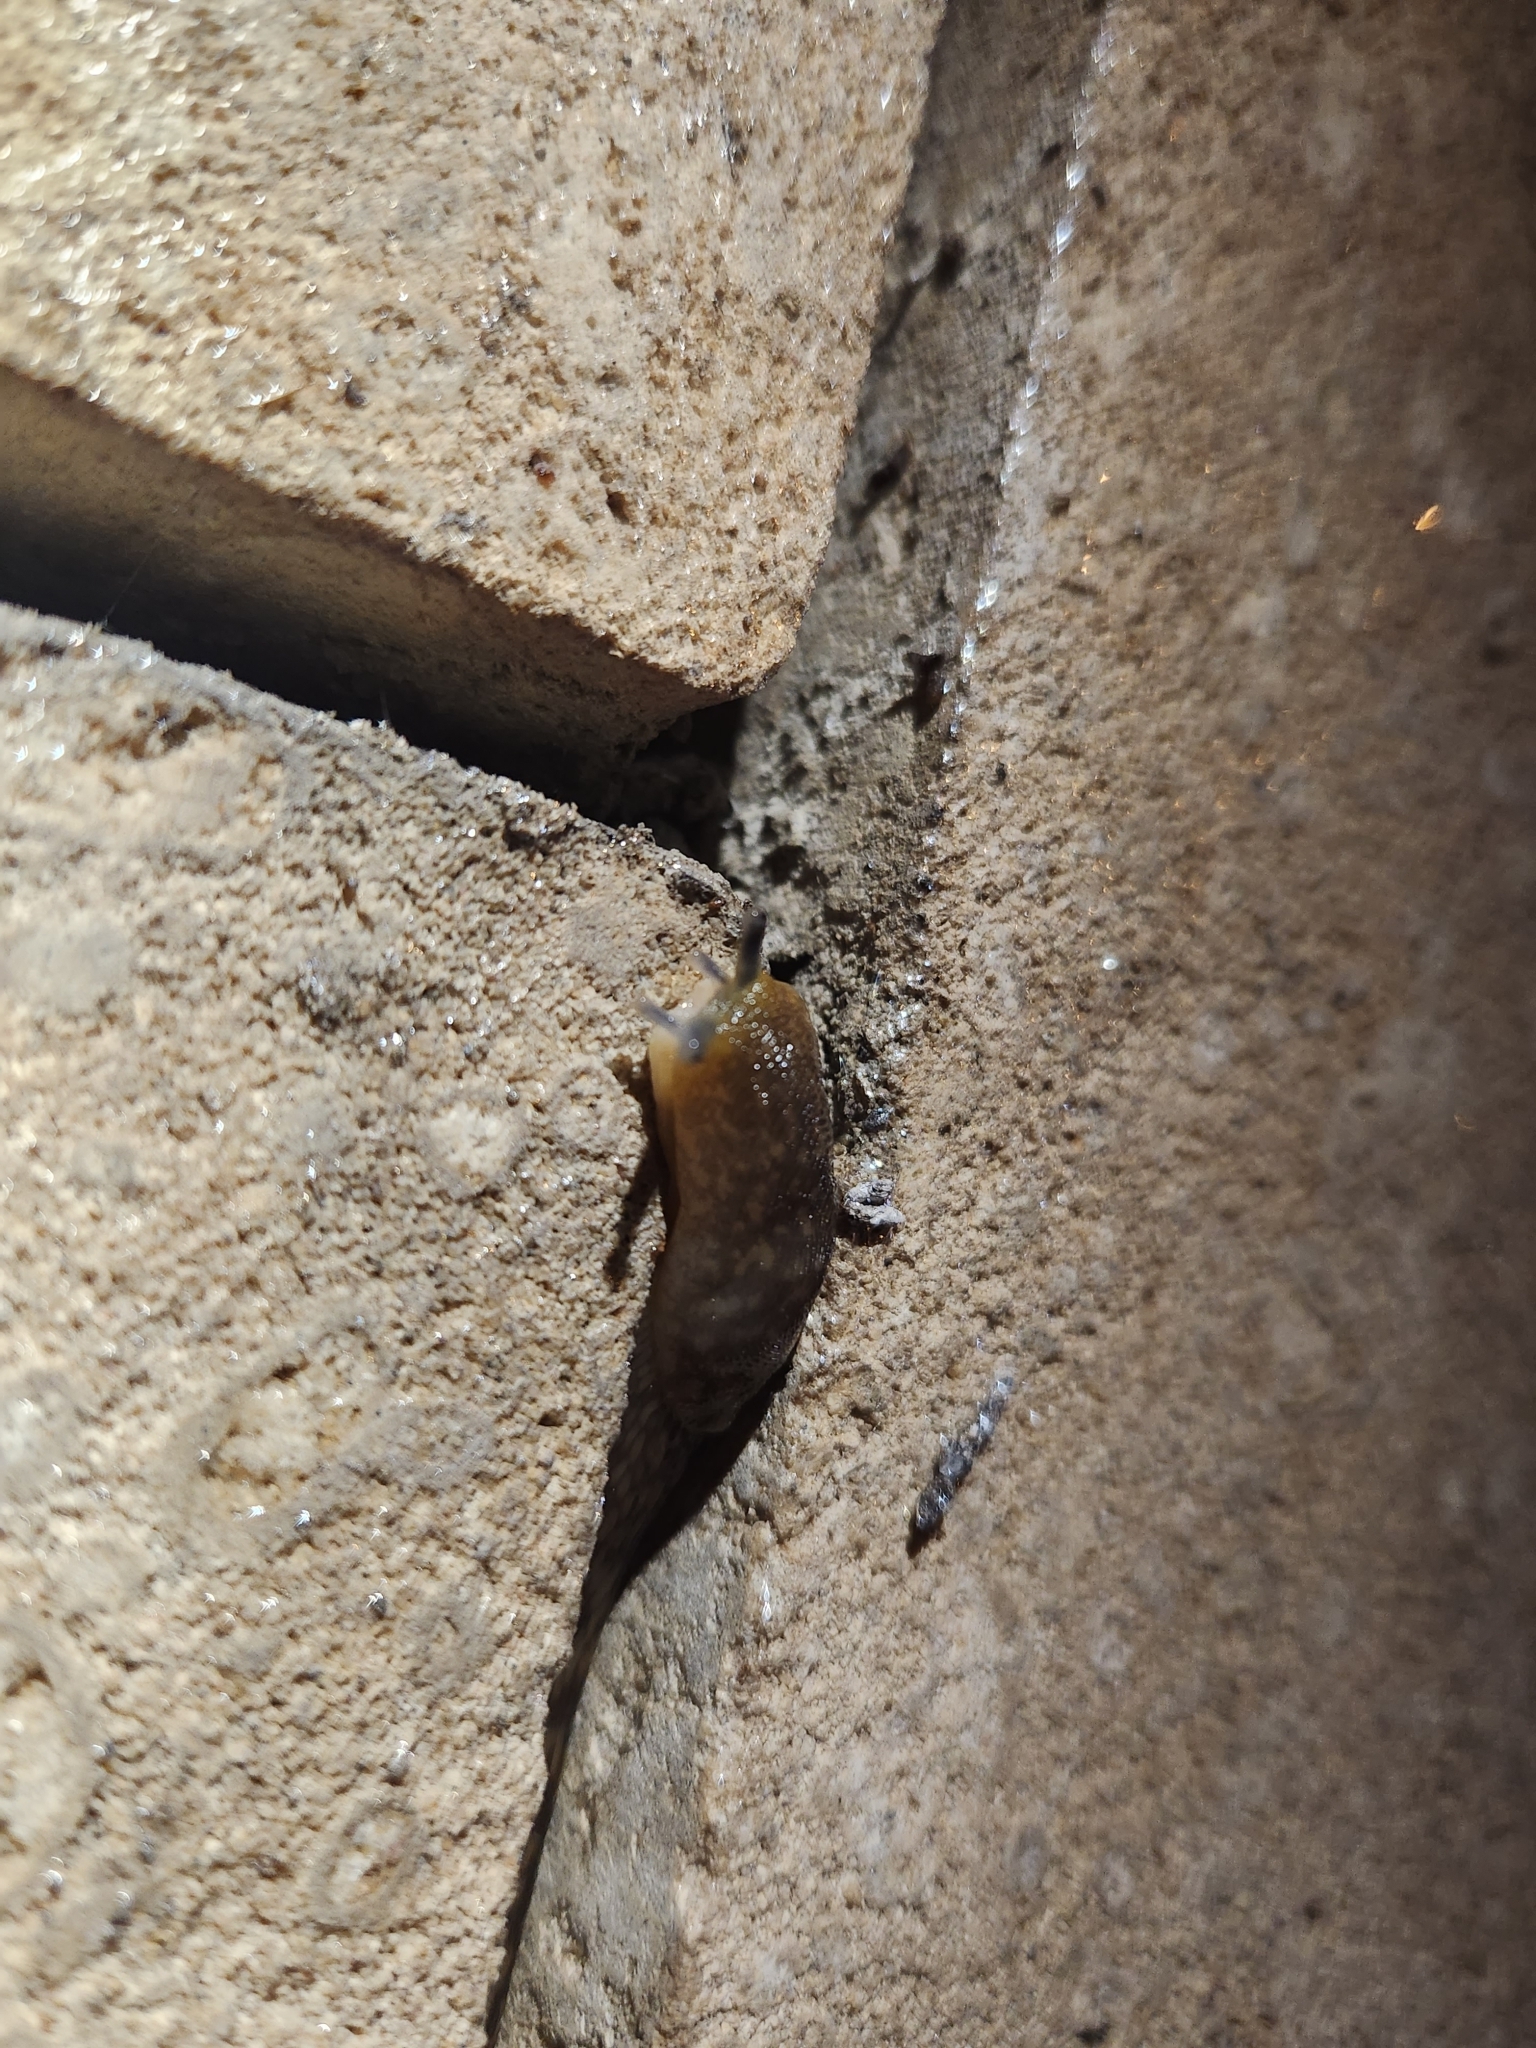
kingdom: Animalia
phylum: Mollusca
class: Gastropoda
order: Stylommatophora
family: Limacidae
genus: Limacus
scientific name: Limacus flavus
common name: Yellow gardenslug
